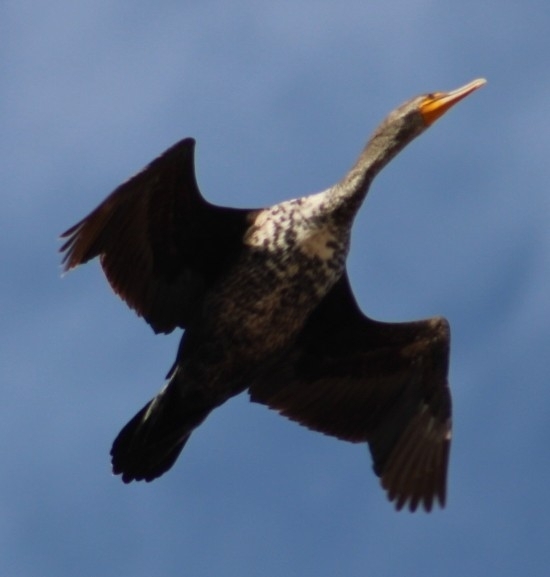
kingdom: Animalia
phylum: Chordata
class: Aves
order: Suliformes
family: Phalacrocoracidae
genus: Phalacrocorax
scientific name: Phalacrocorax auritus
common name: Double-crested cormorant
